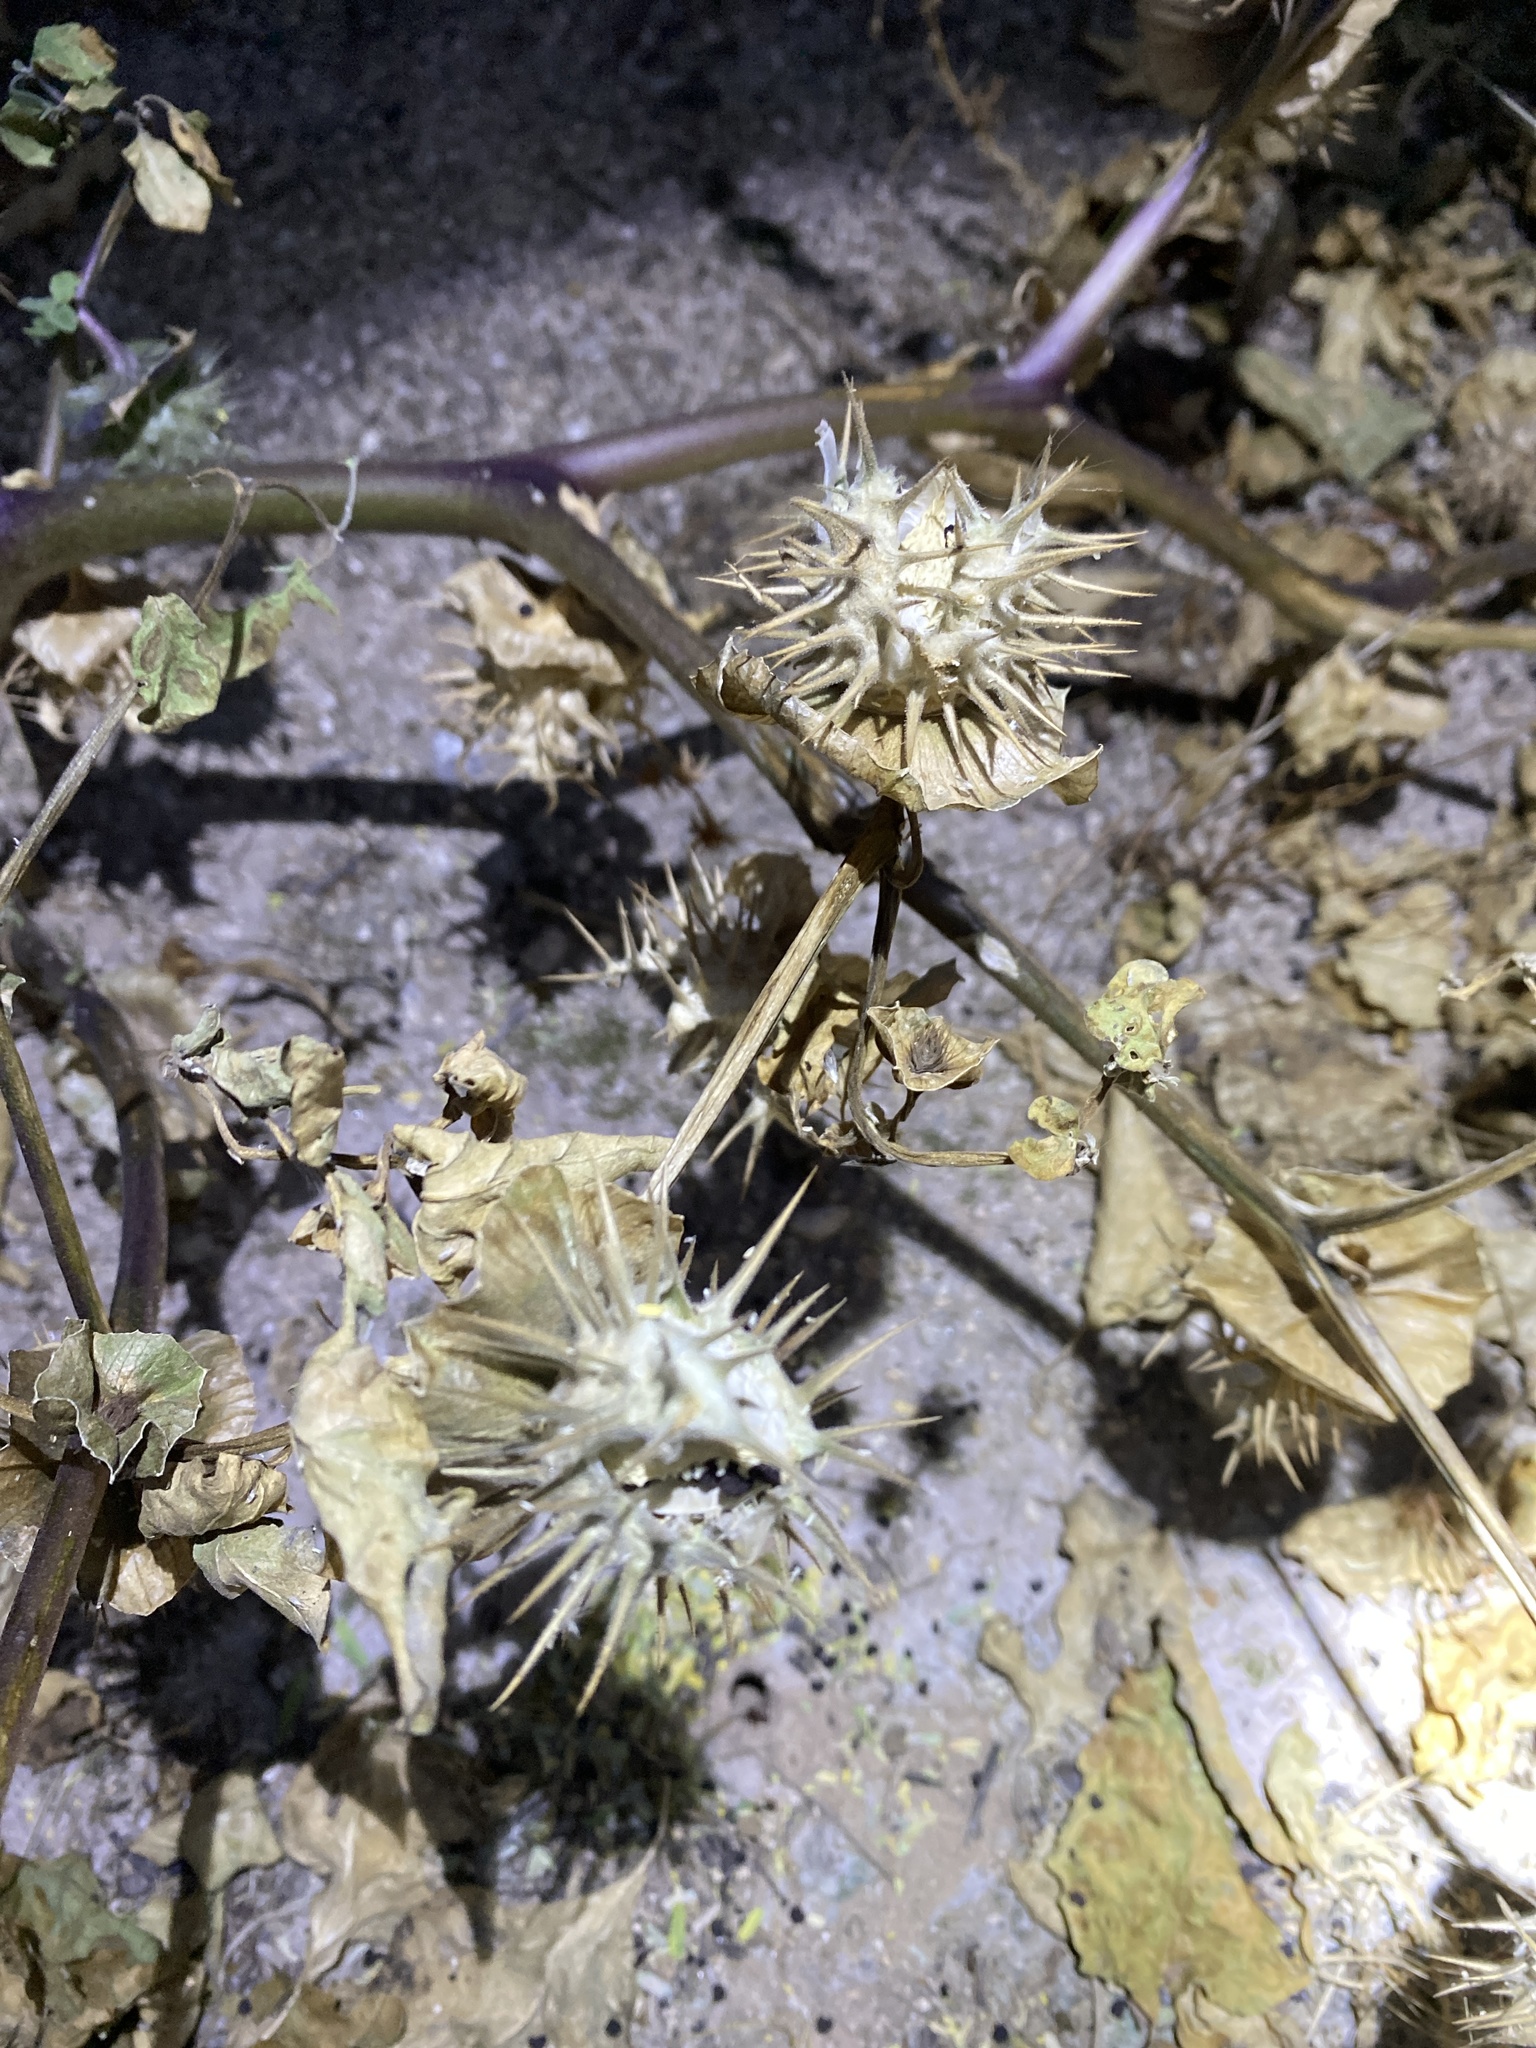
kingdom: Plantae
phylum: Tracheophyta
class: Magnoliopsida
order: Solanales
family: Solanaceae
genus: Datura
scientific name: Datura discolor
